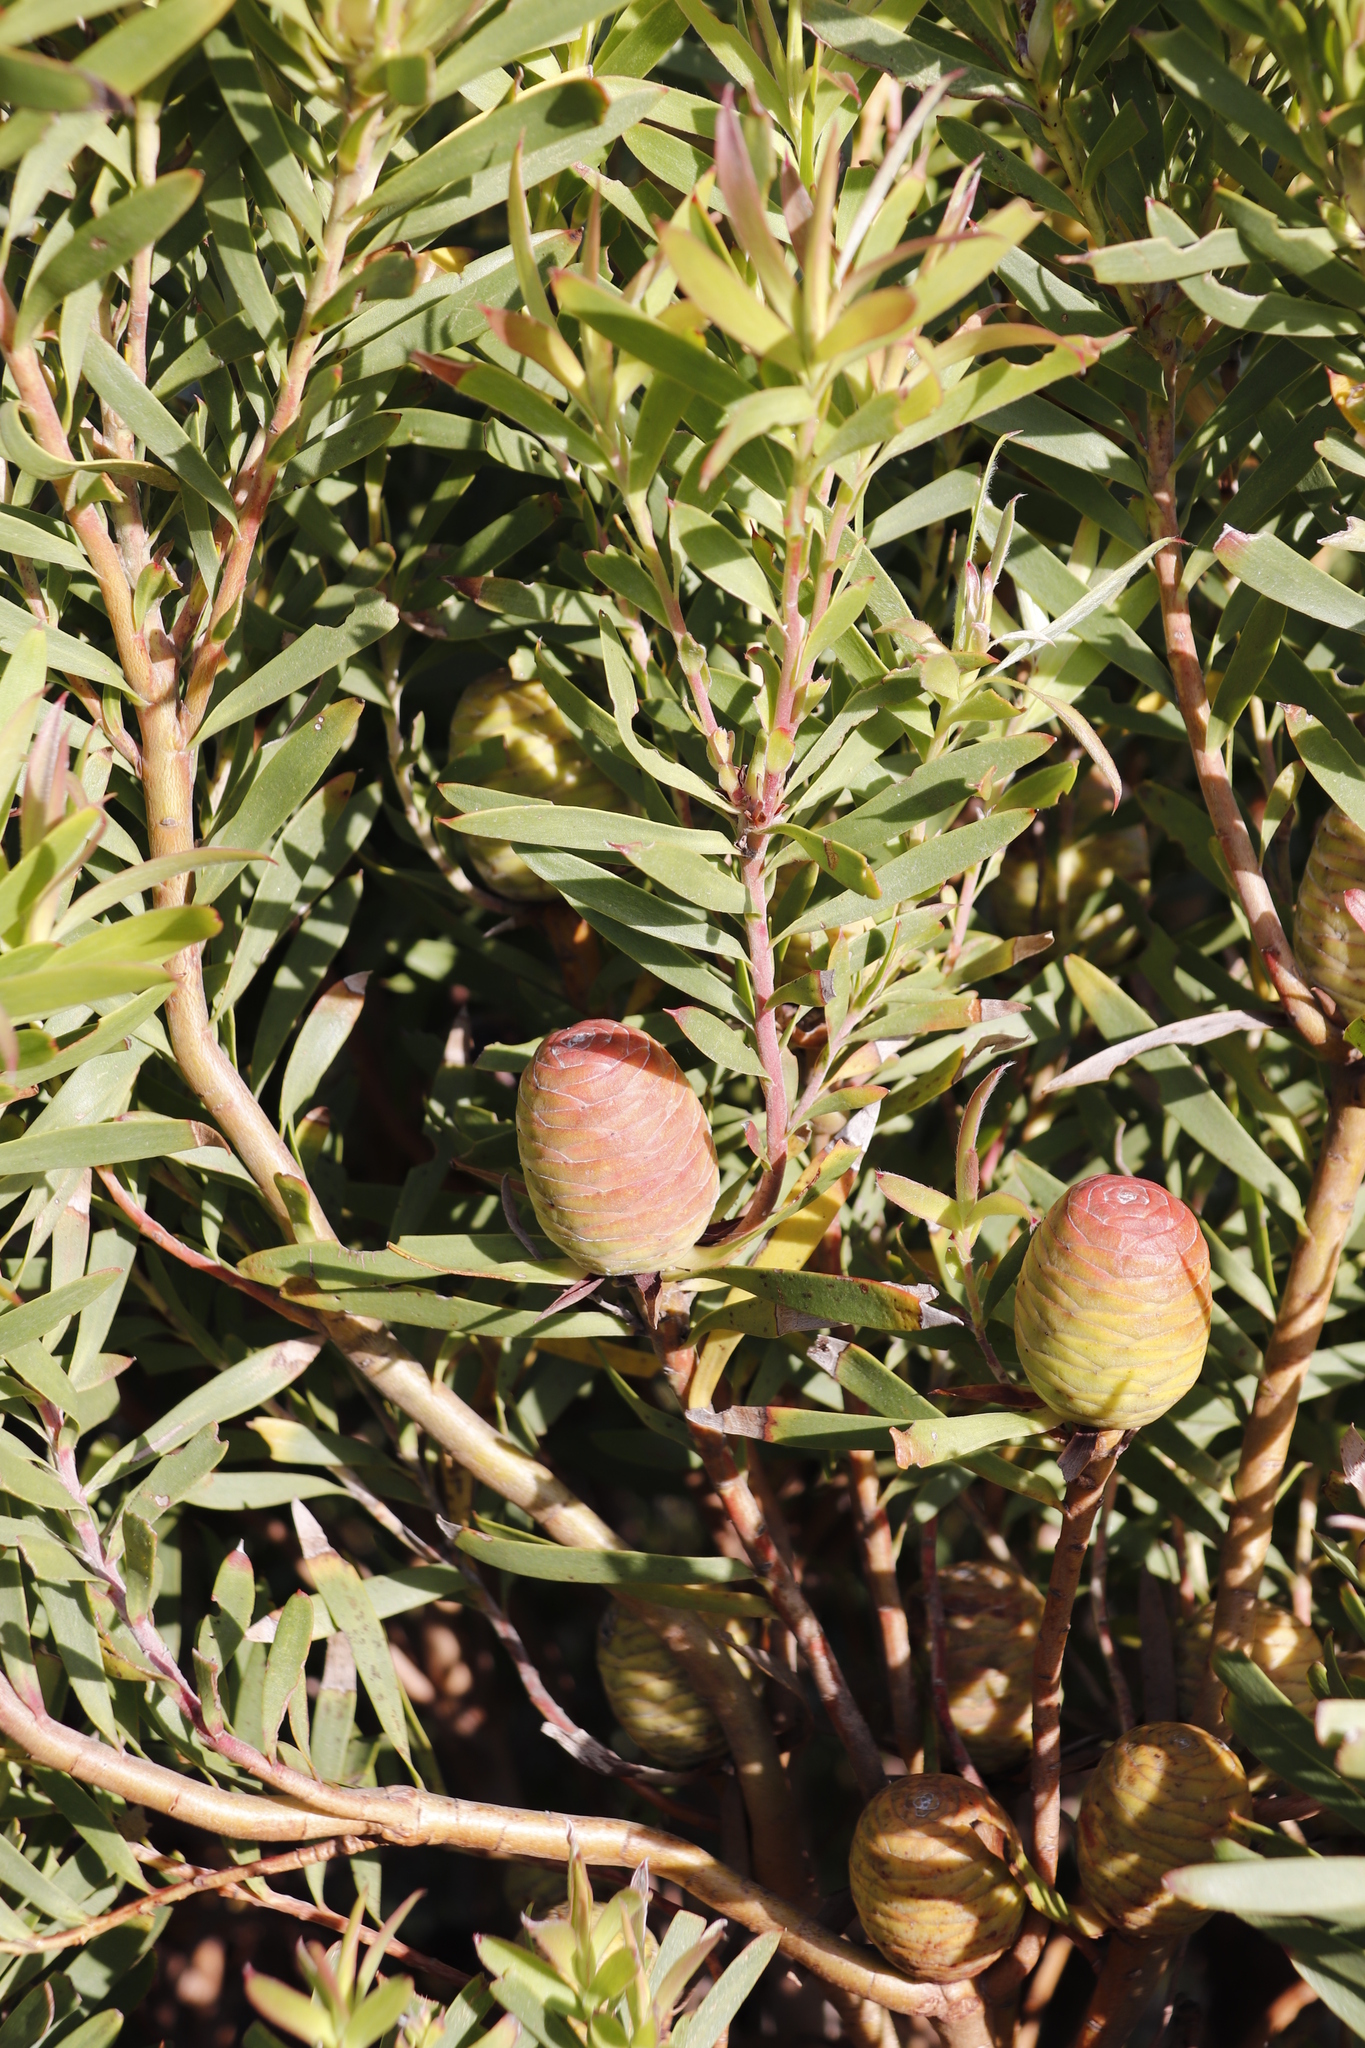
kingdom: Plantae
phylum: Tracheophyta
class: Magnoliopsida
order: Proteales
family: Proteaceae
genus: Leucadendron
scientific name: Leucadendron coniferum
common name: Dune conebush
